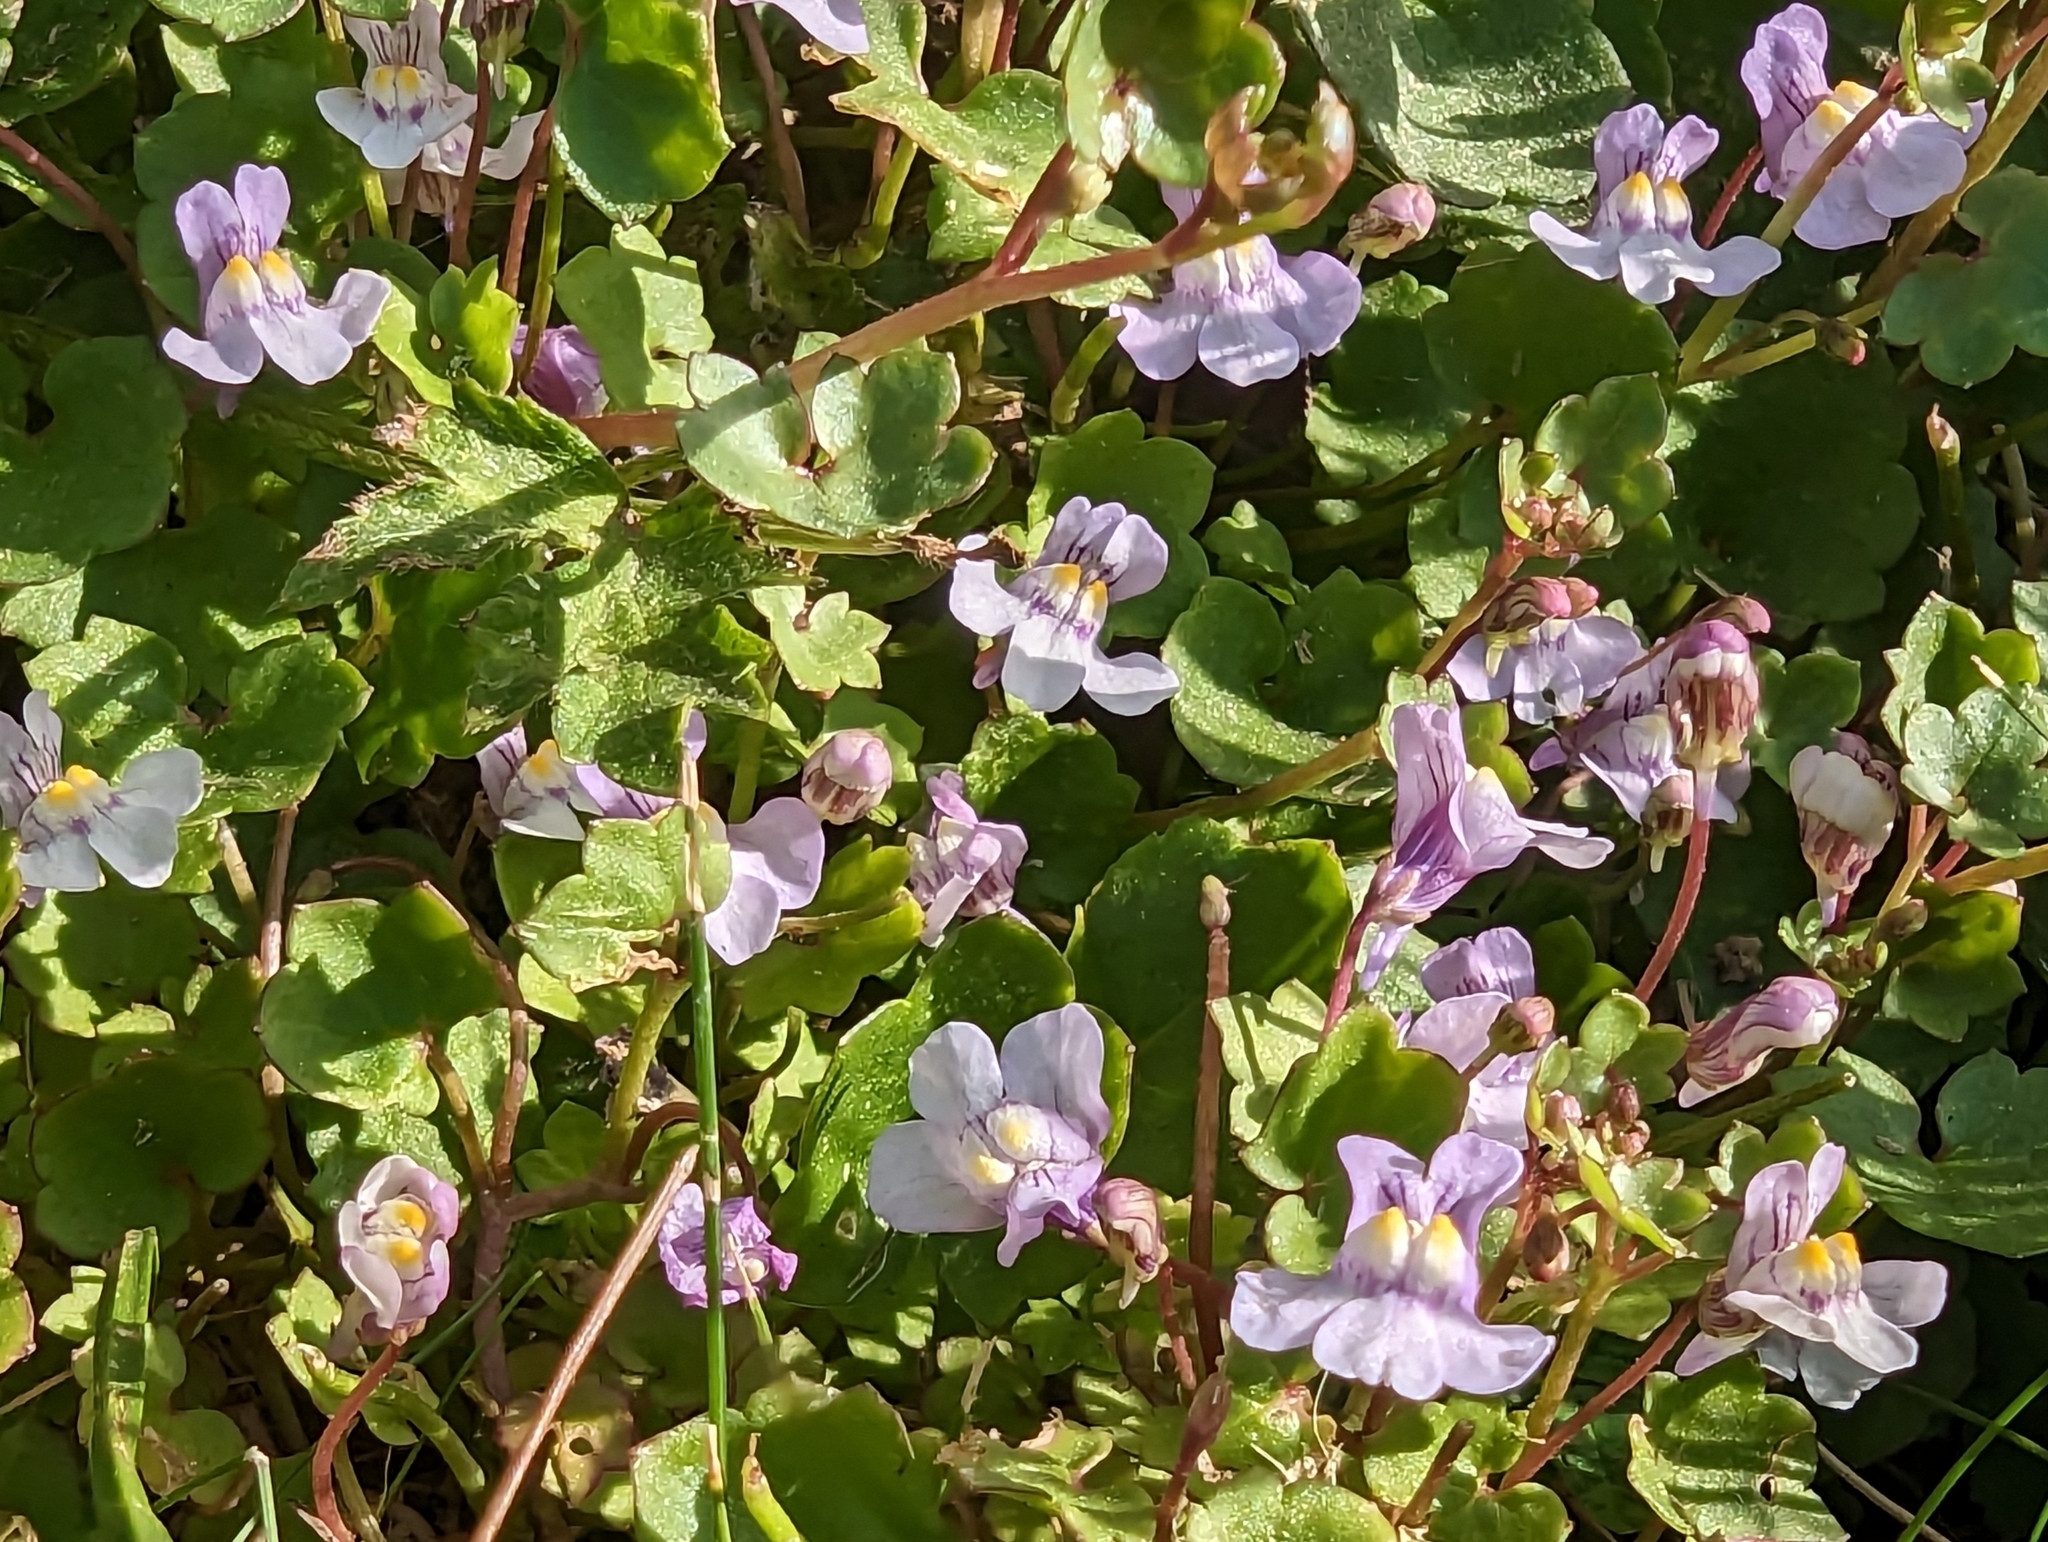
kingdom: Plantae
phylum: Tracheophyta
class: Magnoliopsida
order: Lamiales
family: Plantaginaceae
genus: Cymbalaria
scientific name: Cymbalaria muralis
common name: Ivy-leaved toadflax
